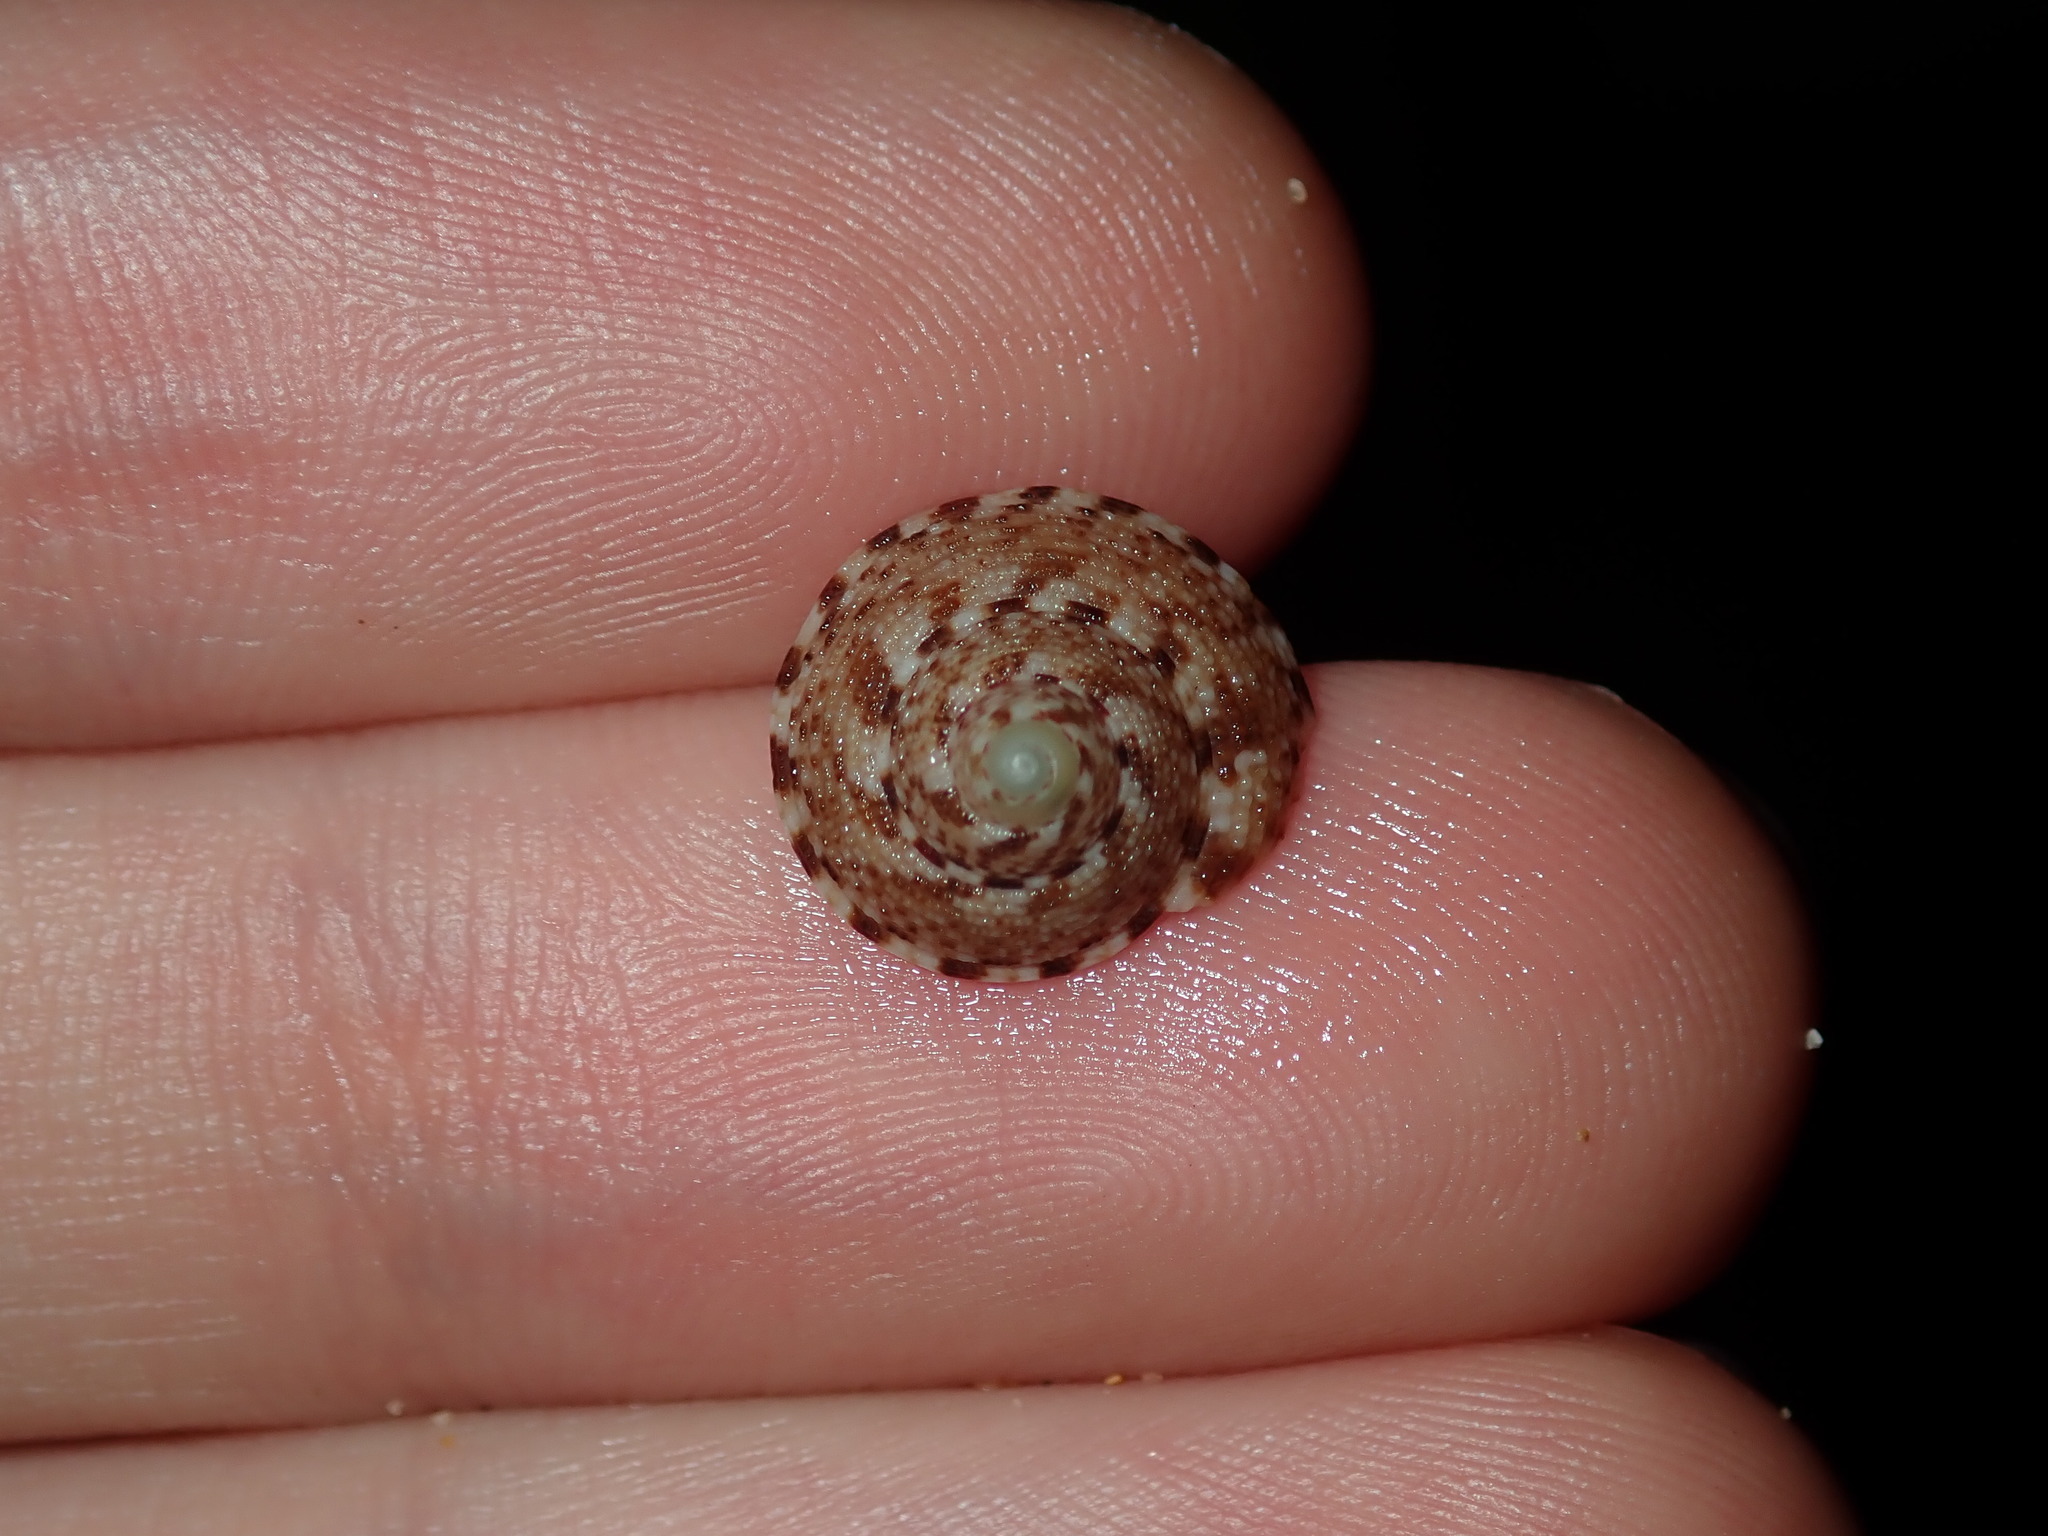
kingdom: Animalia
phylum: Mollusca
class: Gastropoda
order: Trochida
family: Trochidae
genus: Clanculus
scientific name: Clanculus brunneus
